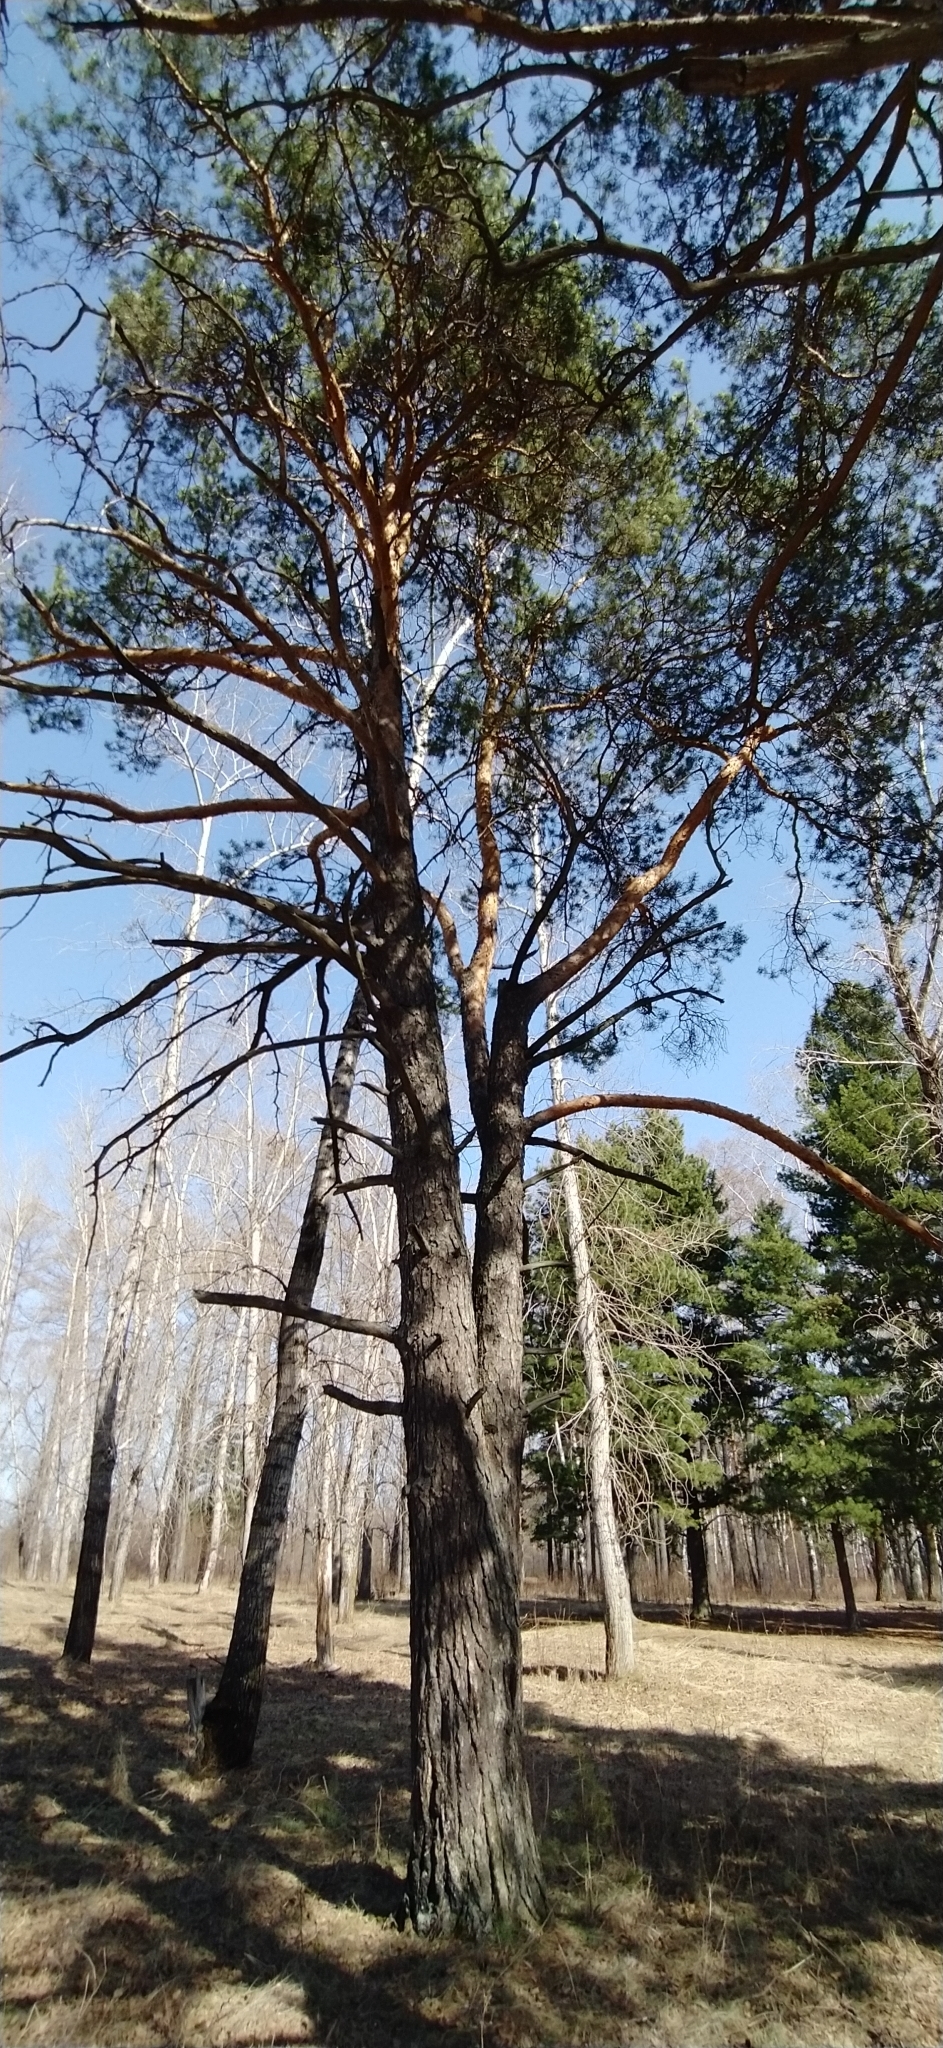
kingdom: Plantae
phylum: Tracheophyta
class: Pinopsida
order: Pinales
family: Pinaceae
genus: Pinus
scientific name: Pinus sylvestris
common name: Scots pine
